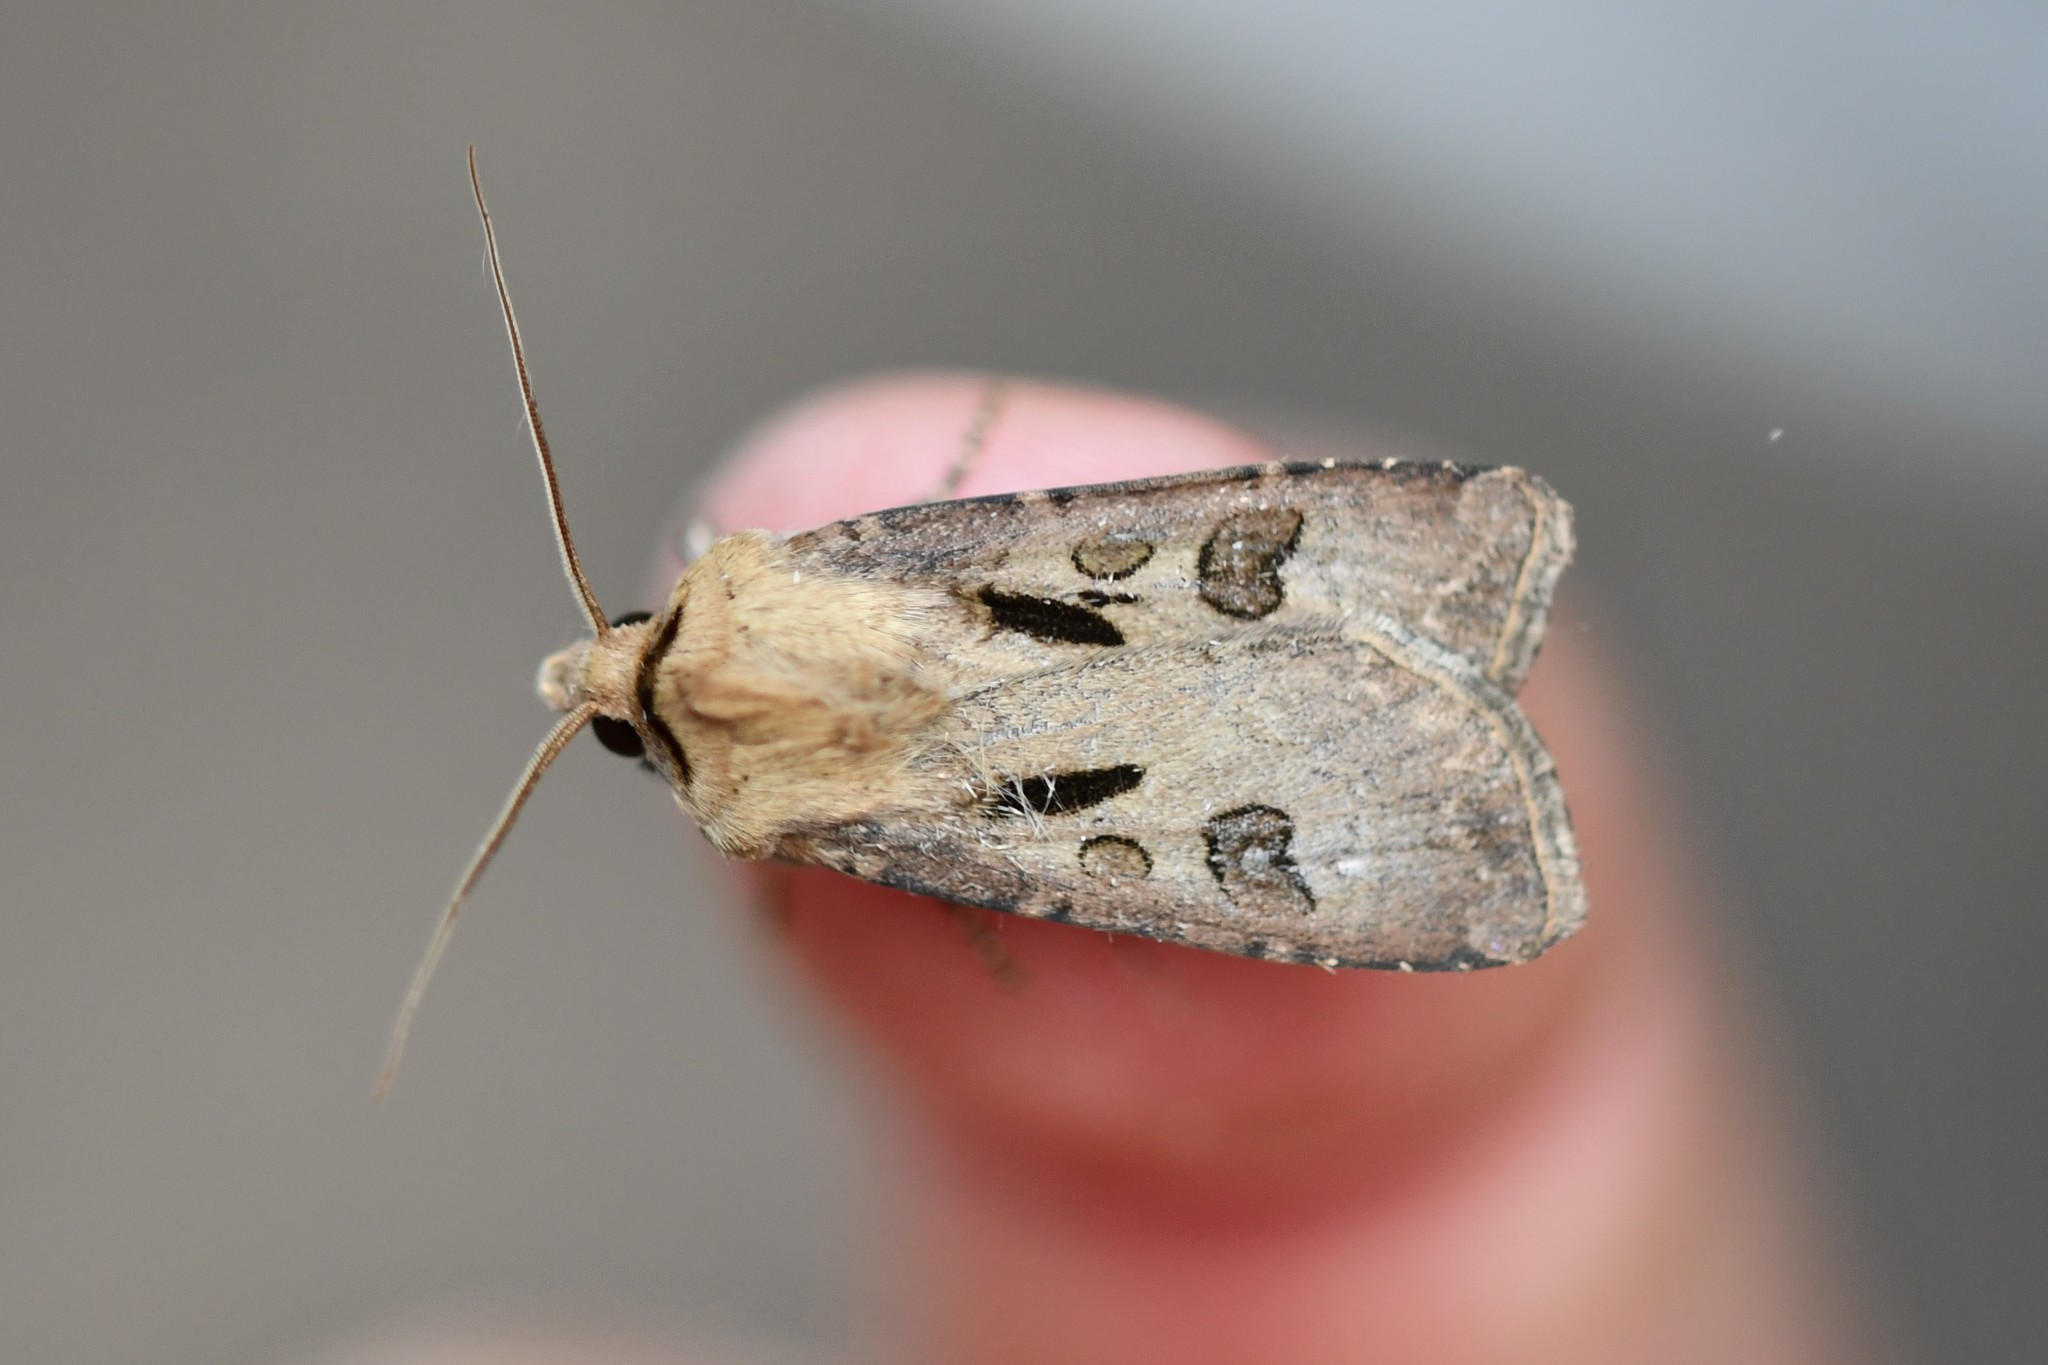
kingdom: Animalia
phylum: Arthropoda
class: Insecta
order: Lepidoptera
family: Noctuidae
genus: Agrotis
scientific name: Agrotis exclamationis
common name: Heart and dart
